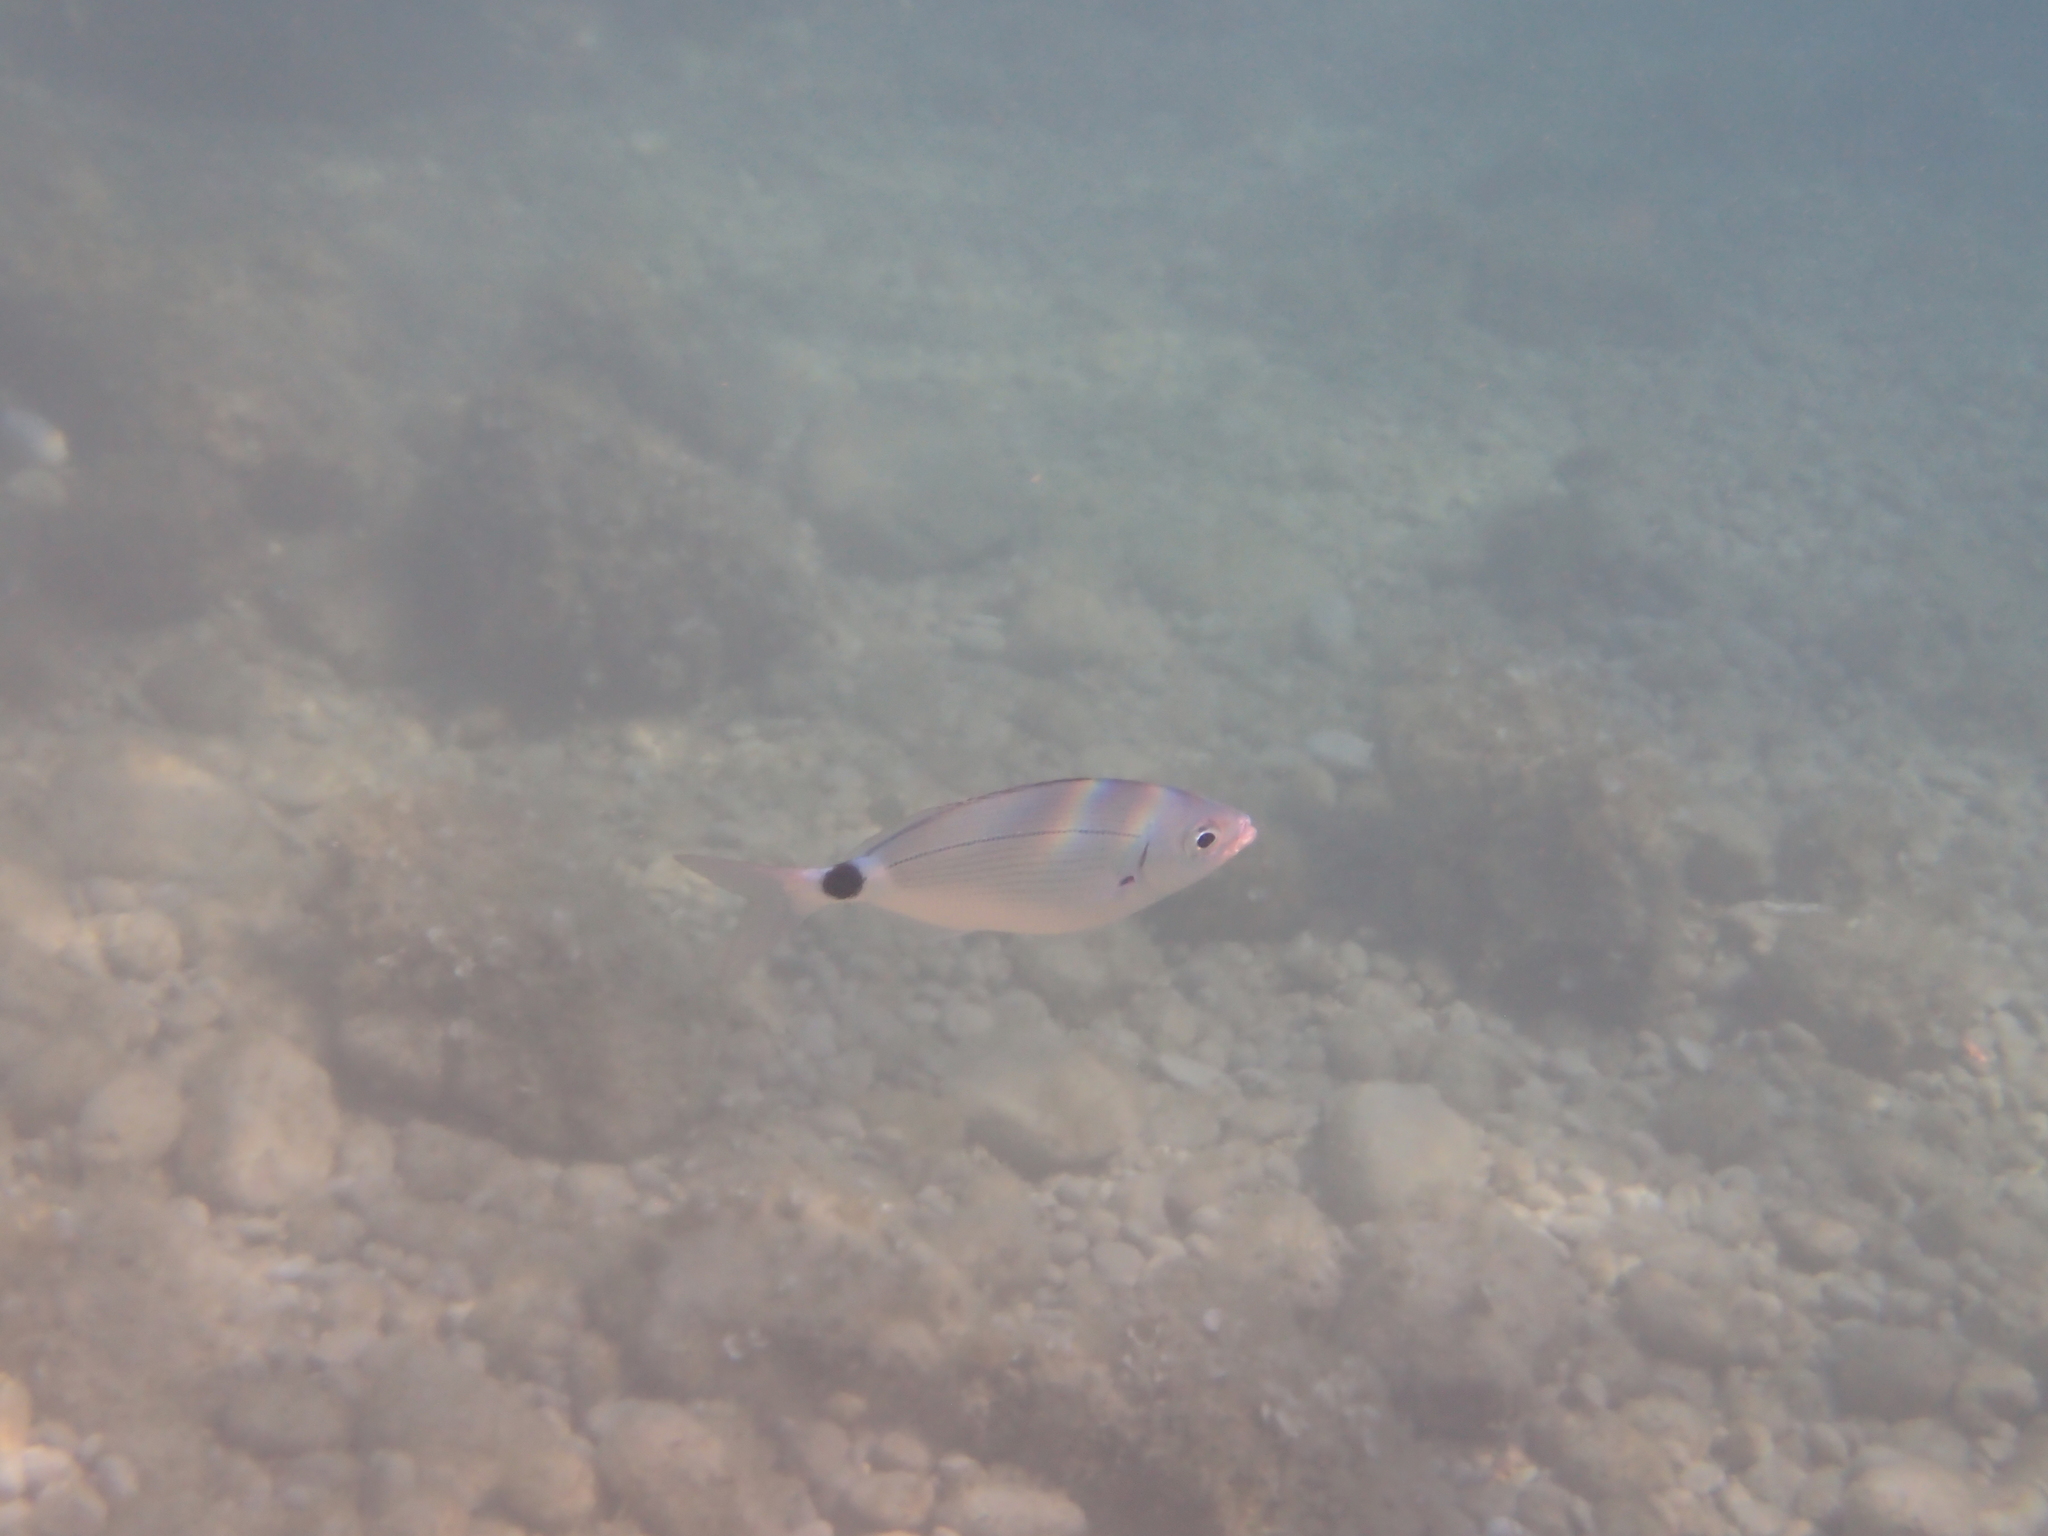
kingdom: Animalia
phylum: Chordata
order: Perciformes
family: Sparidae
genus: Oblada
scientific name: Oblada melanura
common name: Saddled seabream
